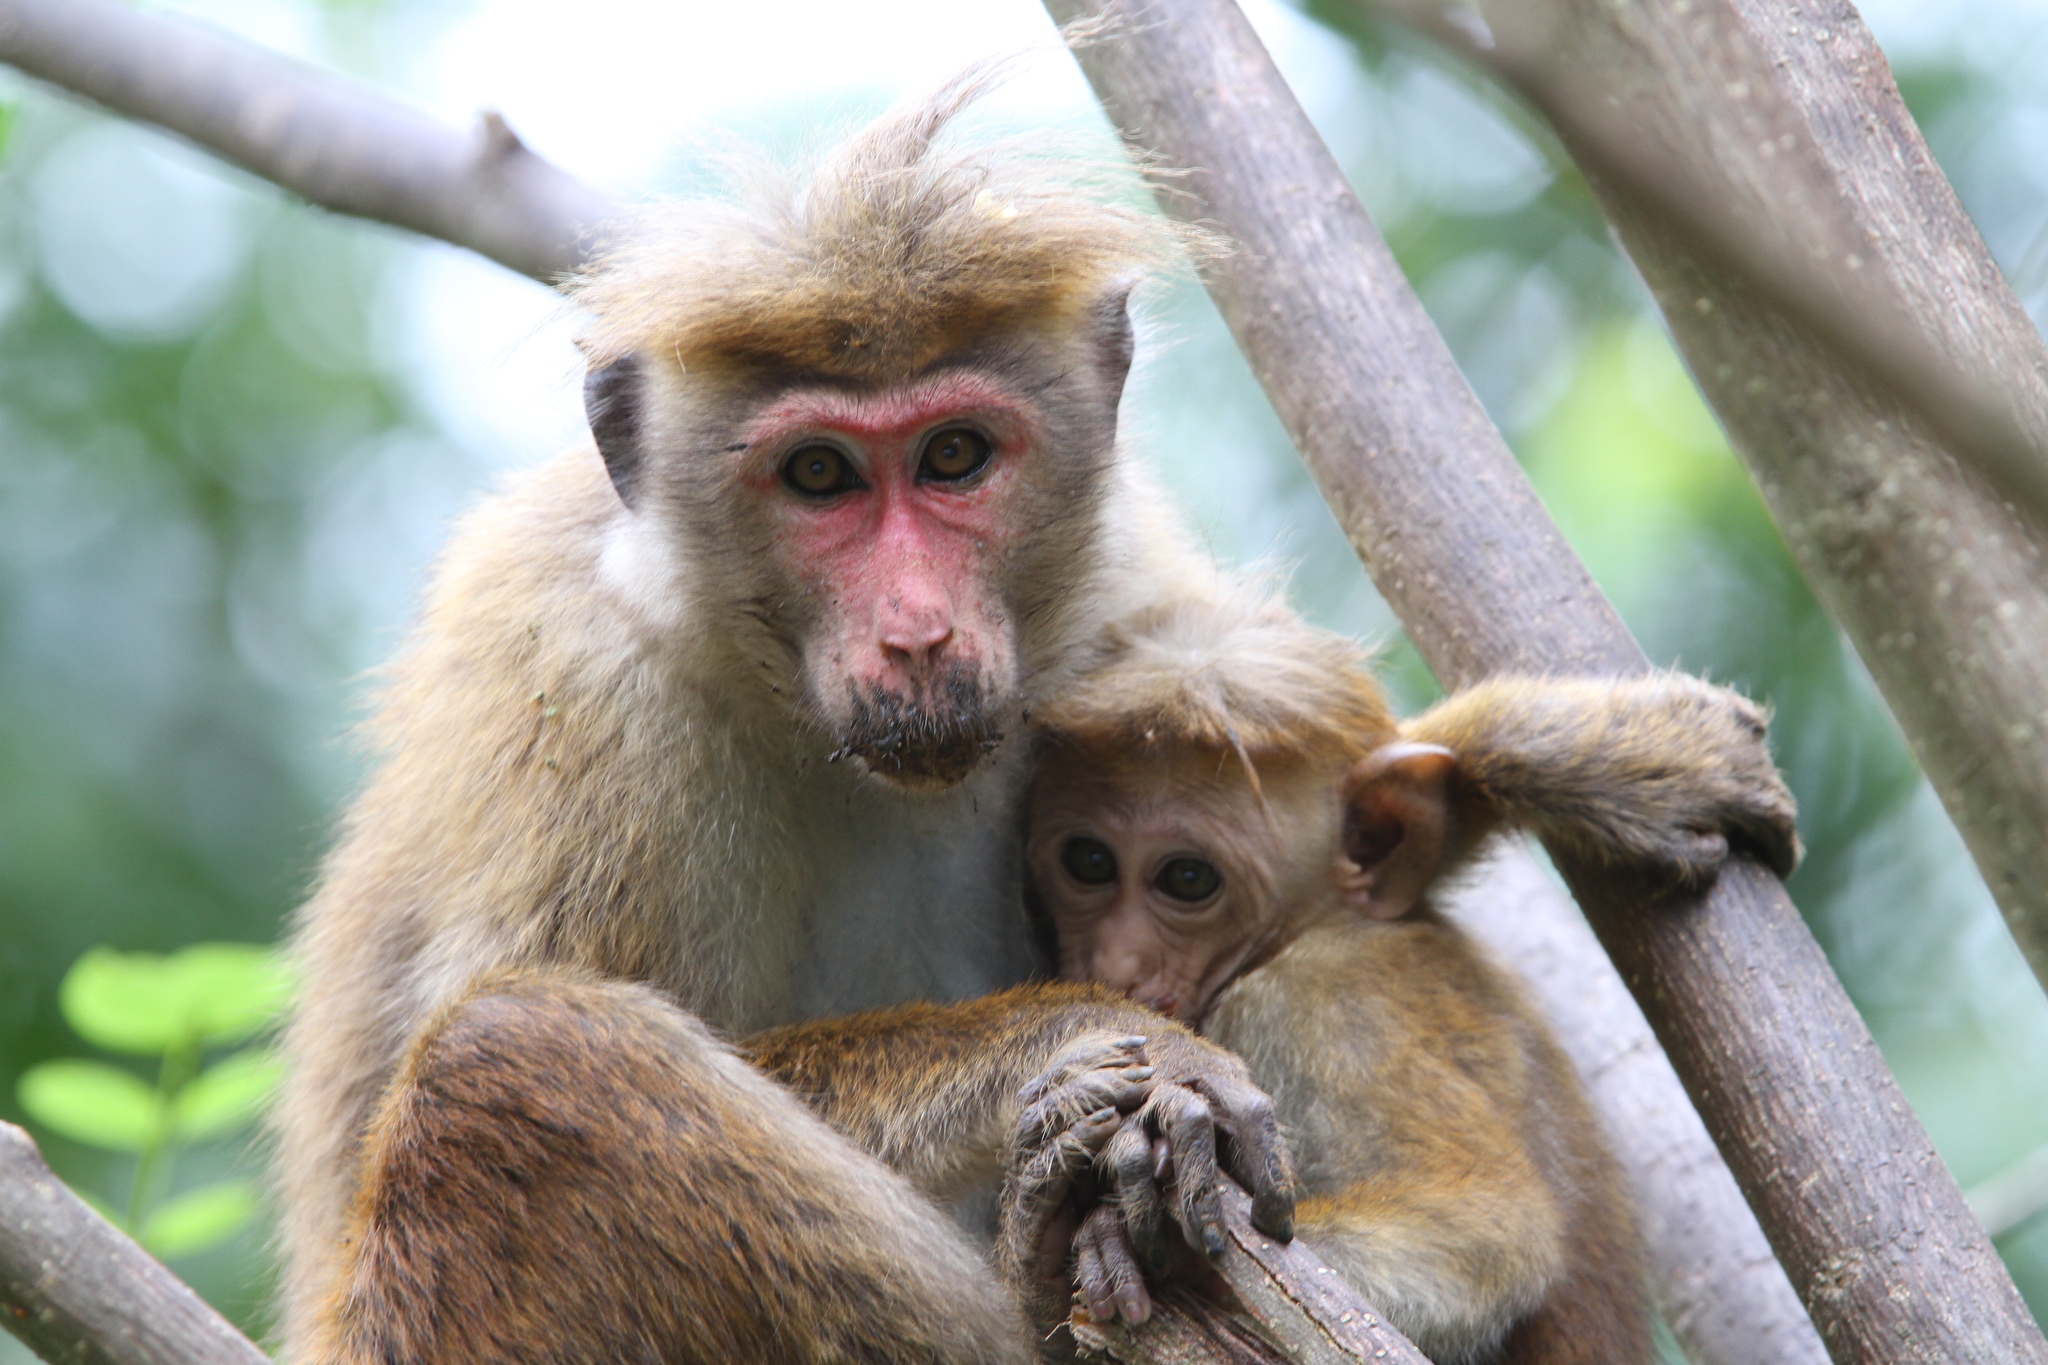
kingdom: Animalia
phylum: Chordata
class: Mammalia
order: Primates
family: Cercopithecidae
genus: Macaca
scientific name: Macaca sinica
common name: Toque macaque
